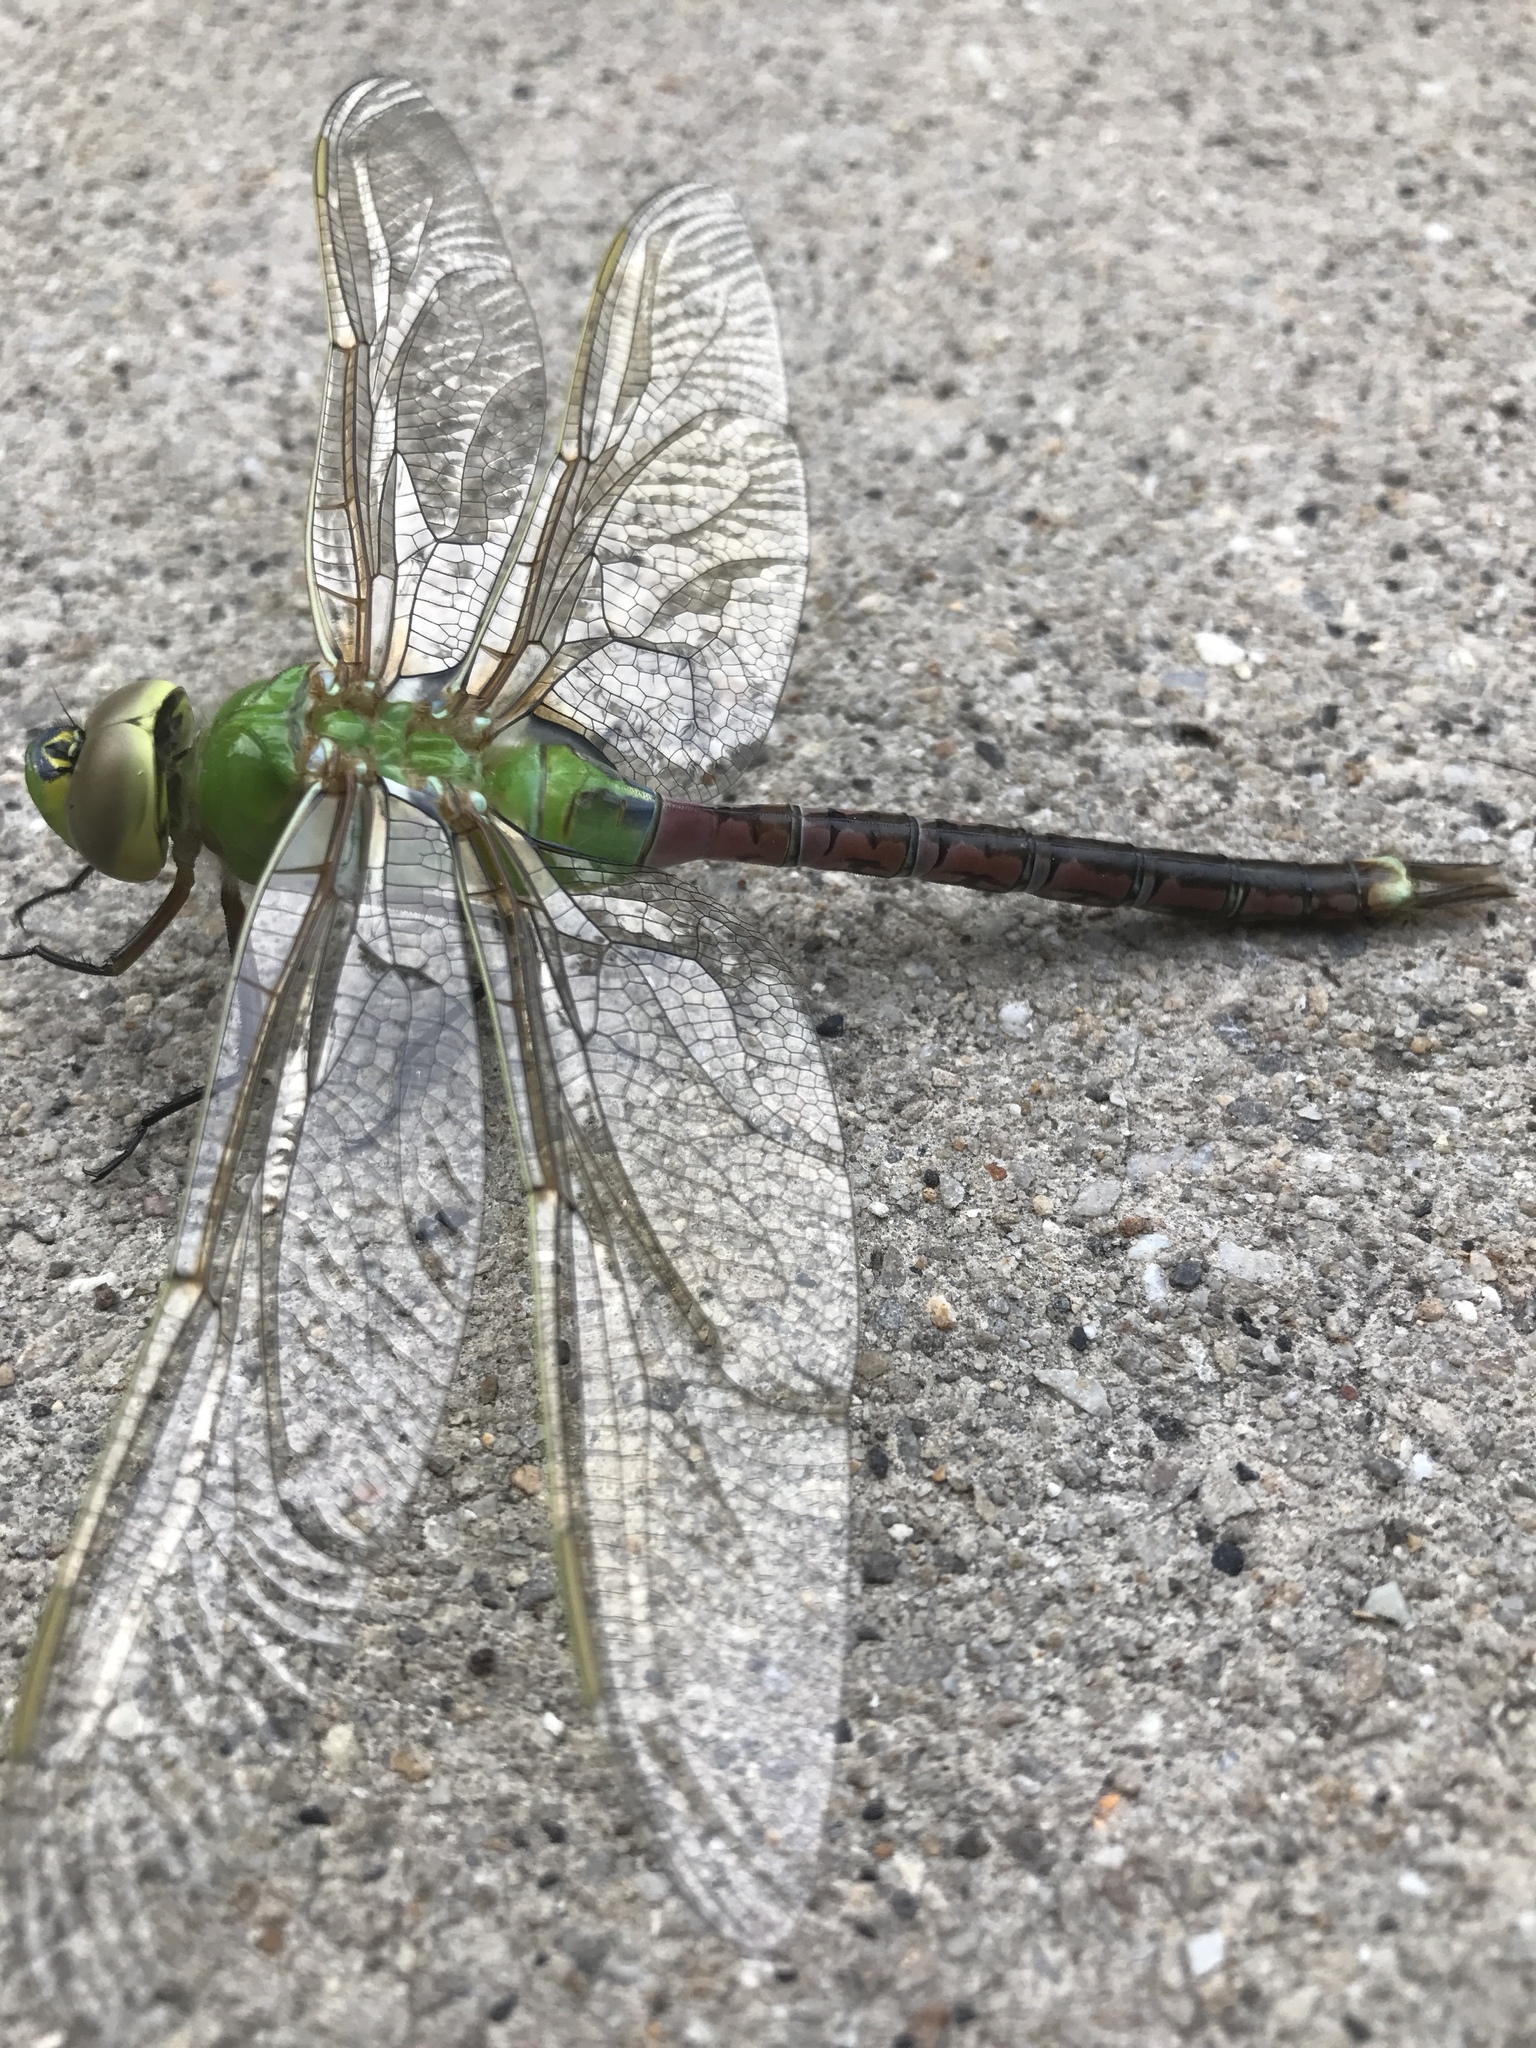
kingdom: Animalia
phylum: Arthropoda
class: Insecta
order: Odonata
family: Aeshnidae
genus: Anax
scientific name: Anax junius
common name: Common green darner
